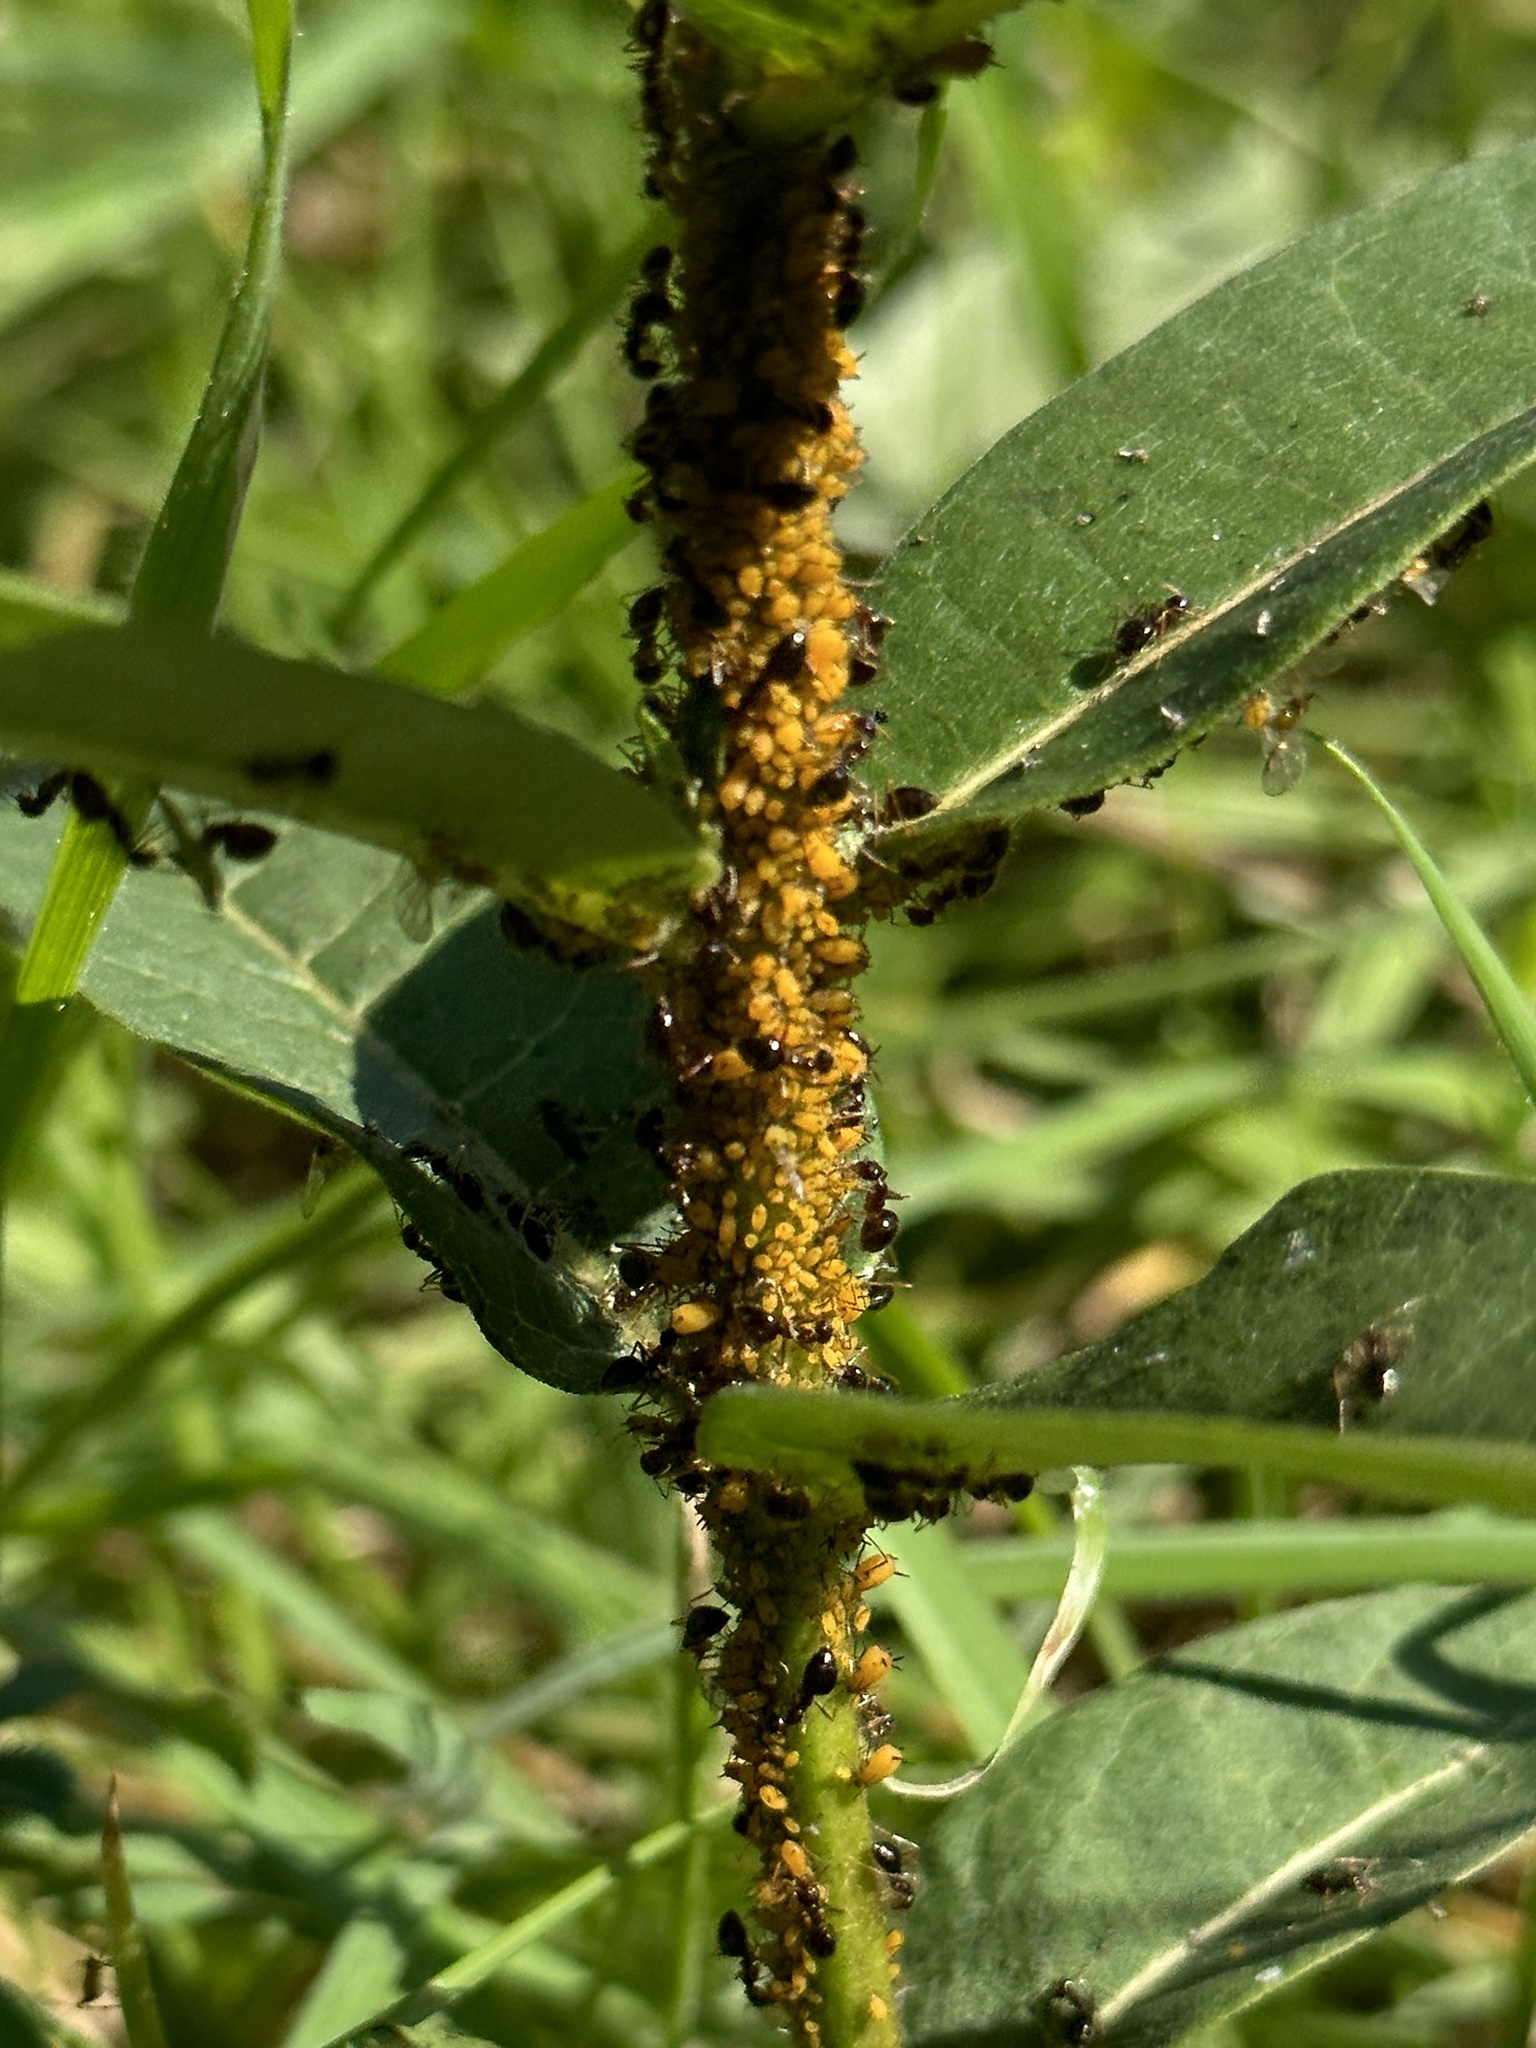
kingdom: Animalia
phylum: Arthropoda
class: Insecta
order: Hemiptera
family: Aphididae
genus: Aphis
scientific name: Aphis nerii
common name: Oleander aphid
